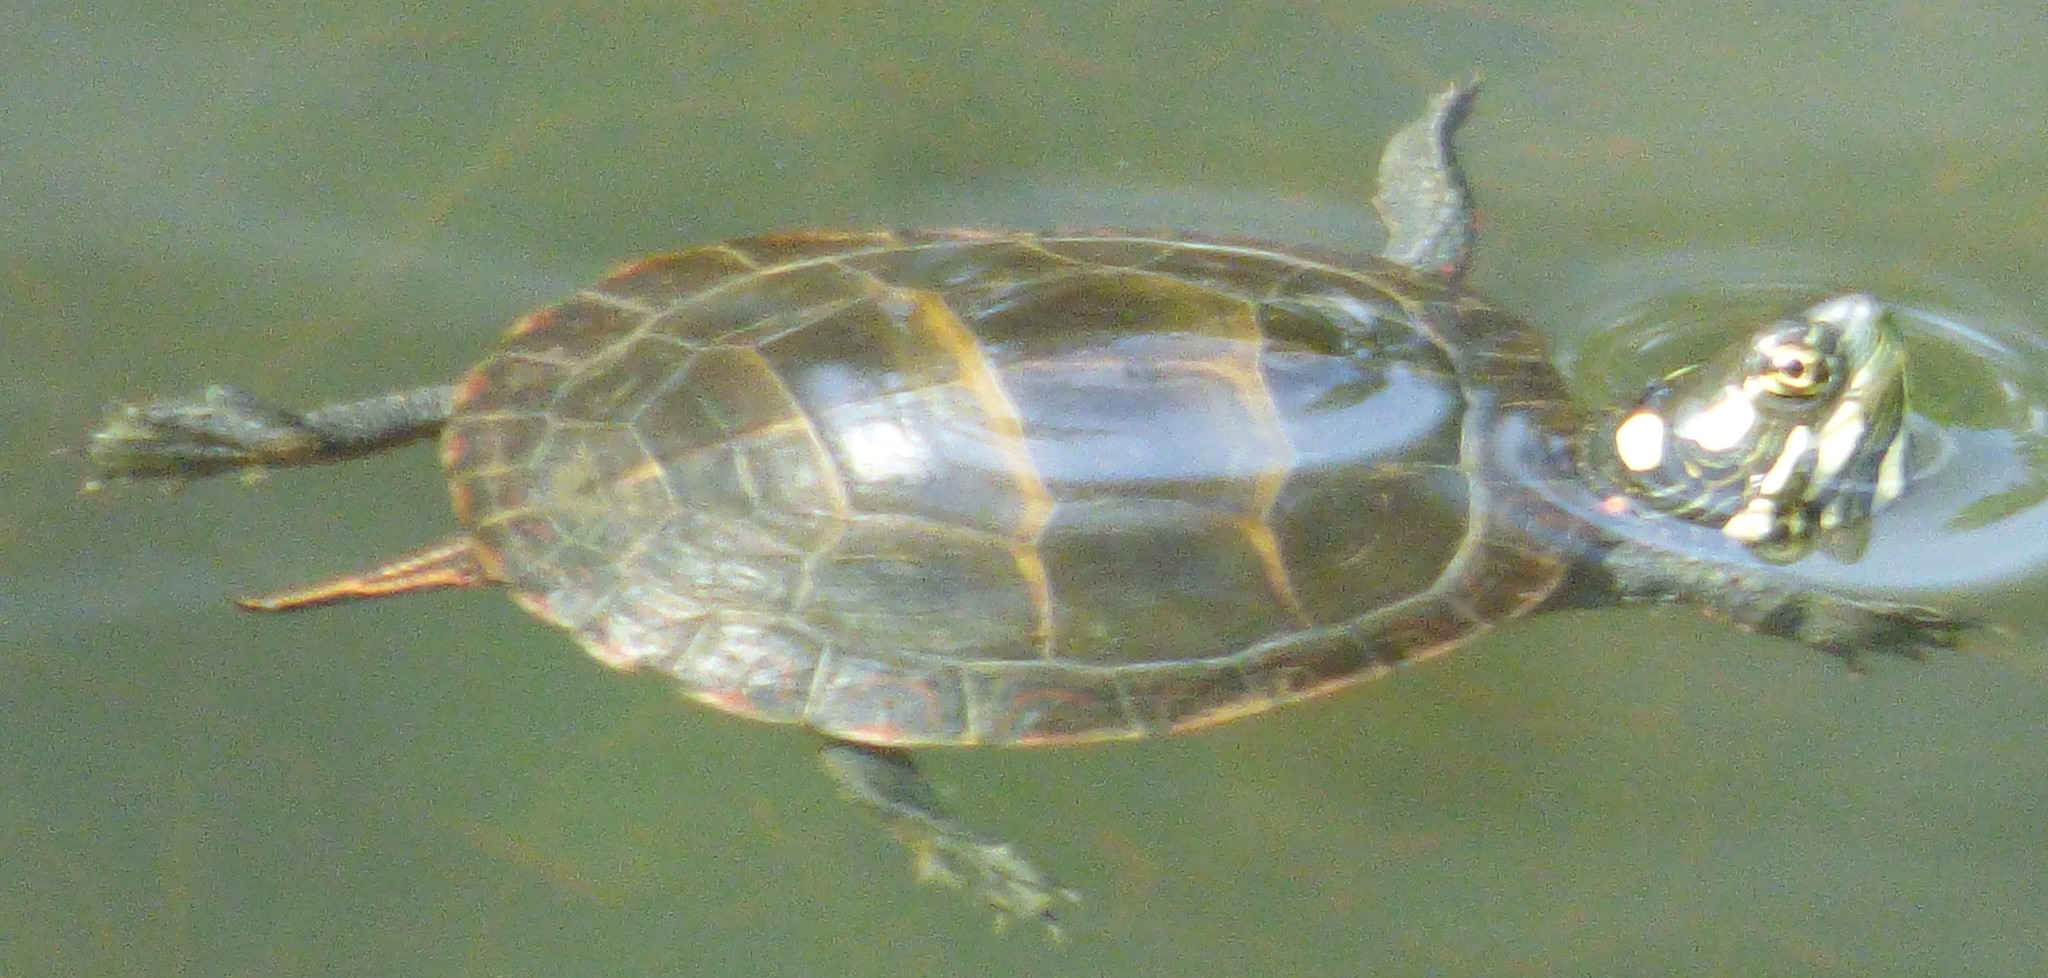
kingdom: Animalia
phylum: Chordata
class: Testudines
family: Emydidae
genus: Chrysemys
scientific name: Chrysemys picta
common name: Painted turtle
